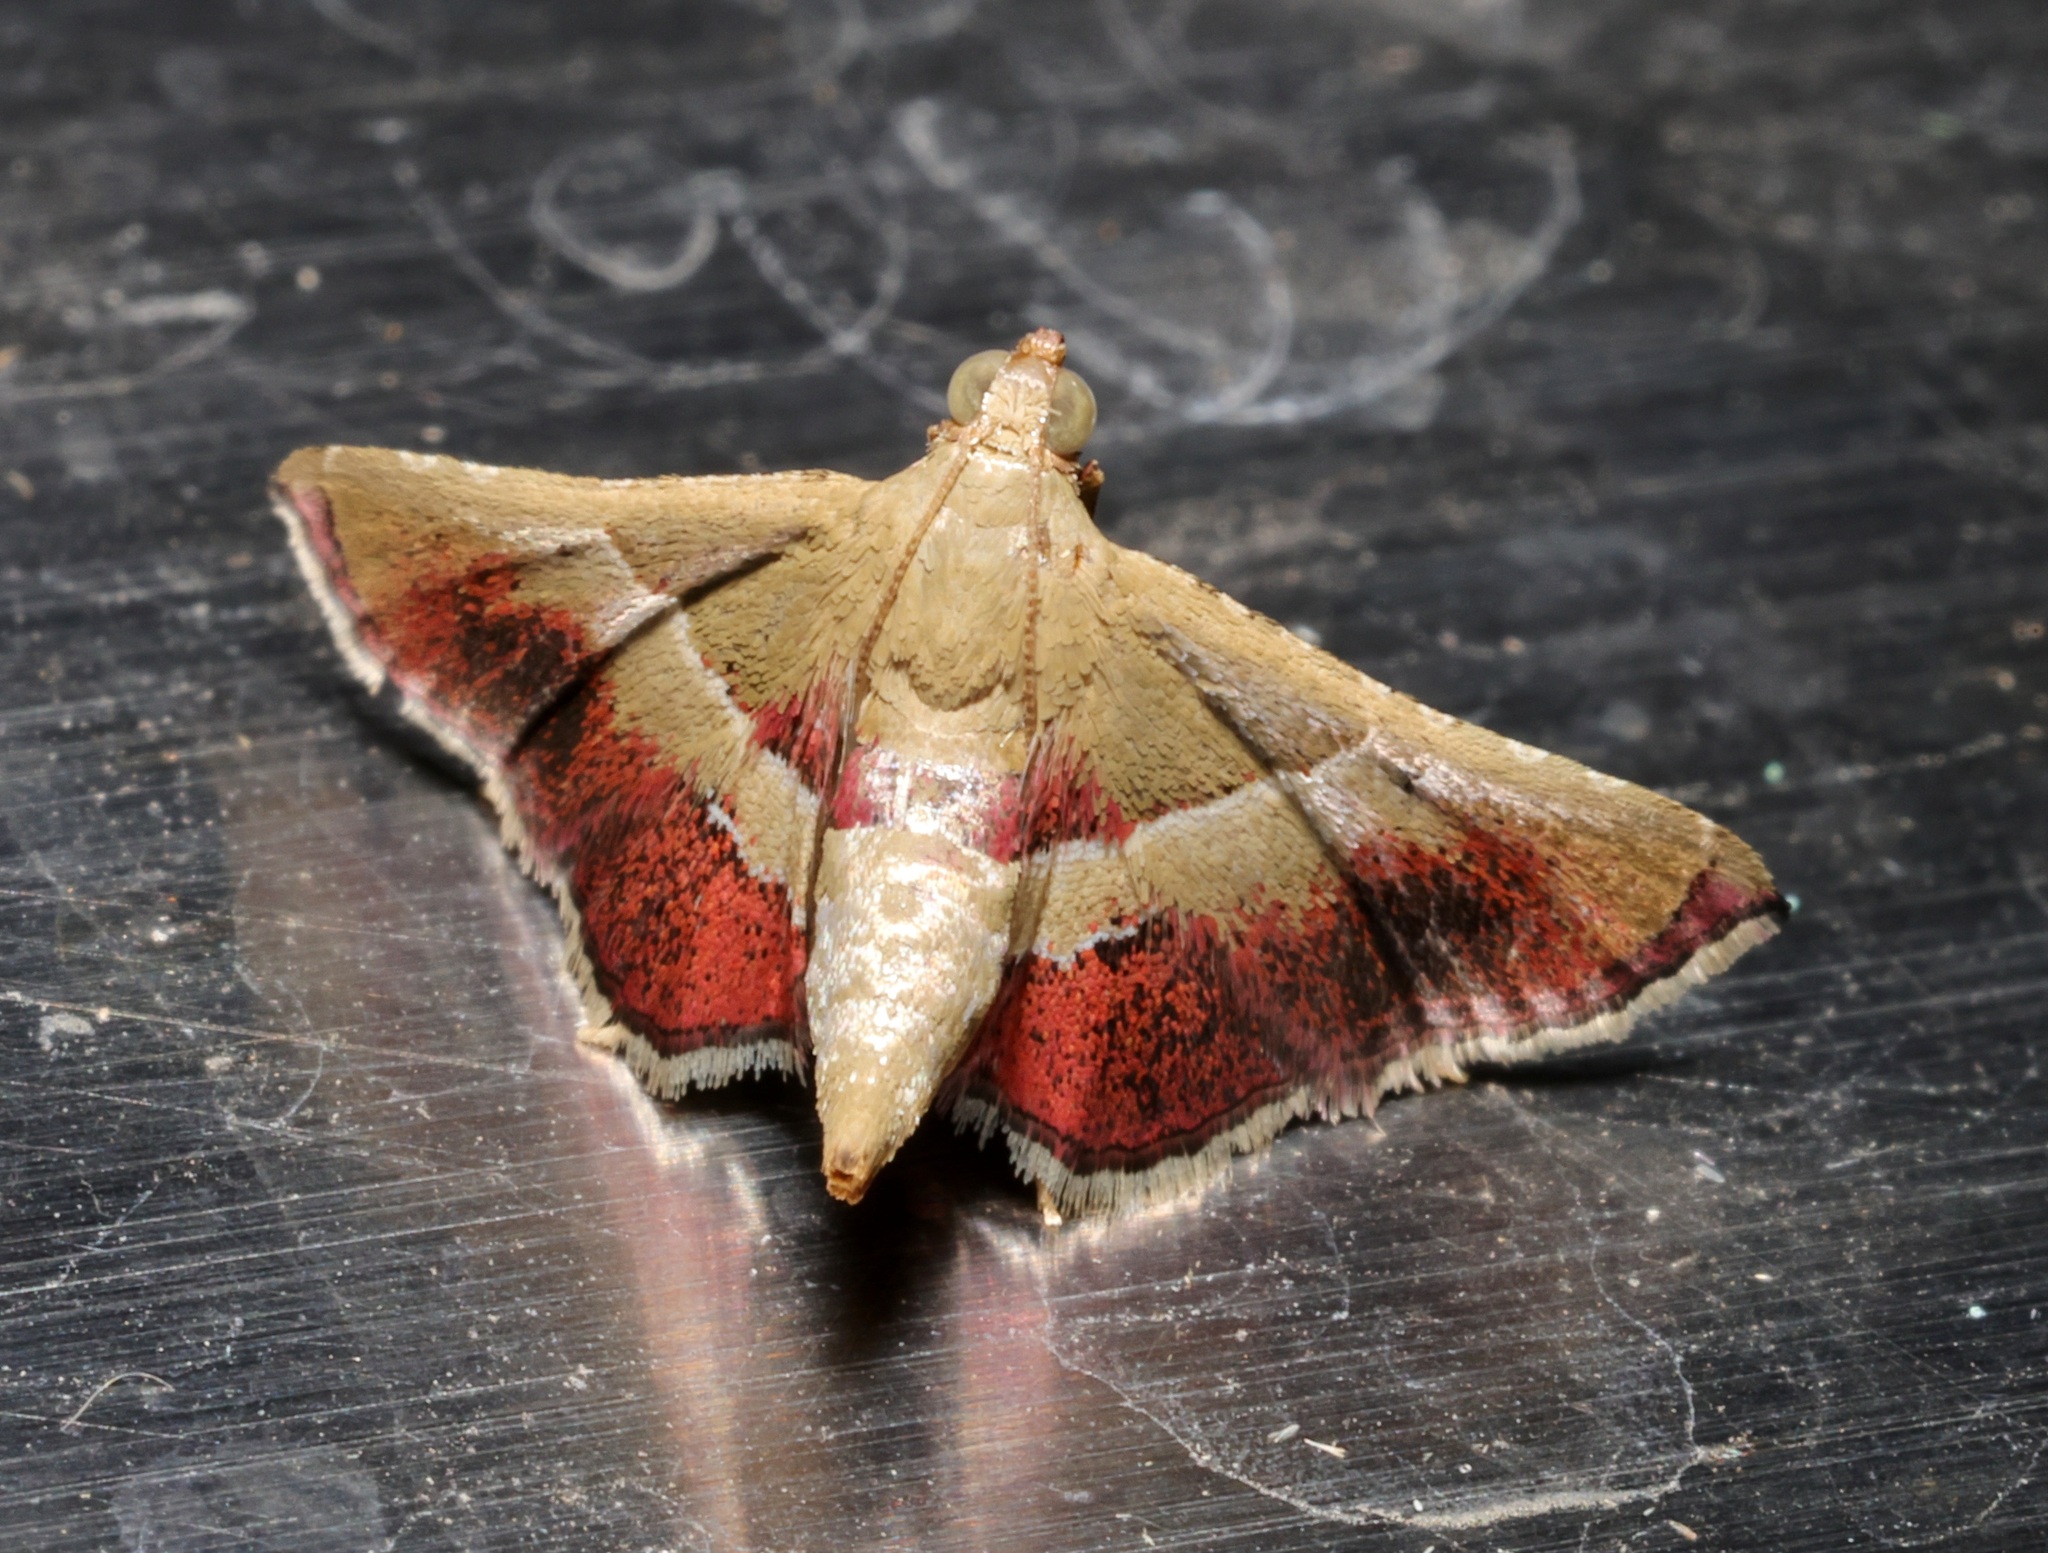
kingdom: Animalia
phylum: Arthropoda
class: Insecta
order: Lepidoptera
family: Pyralidae
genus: Endotricha
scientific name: Endotricha repandalis
